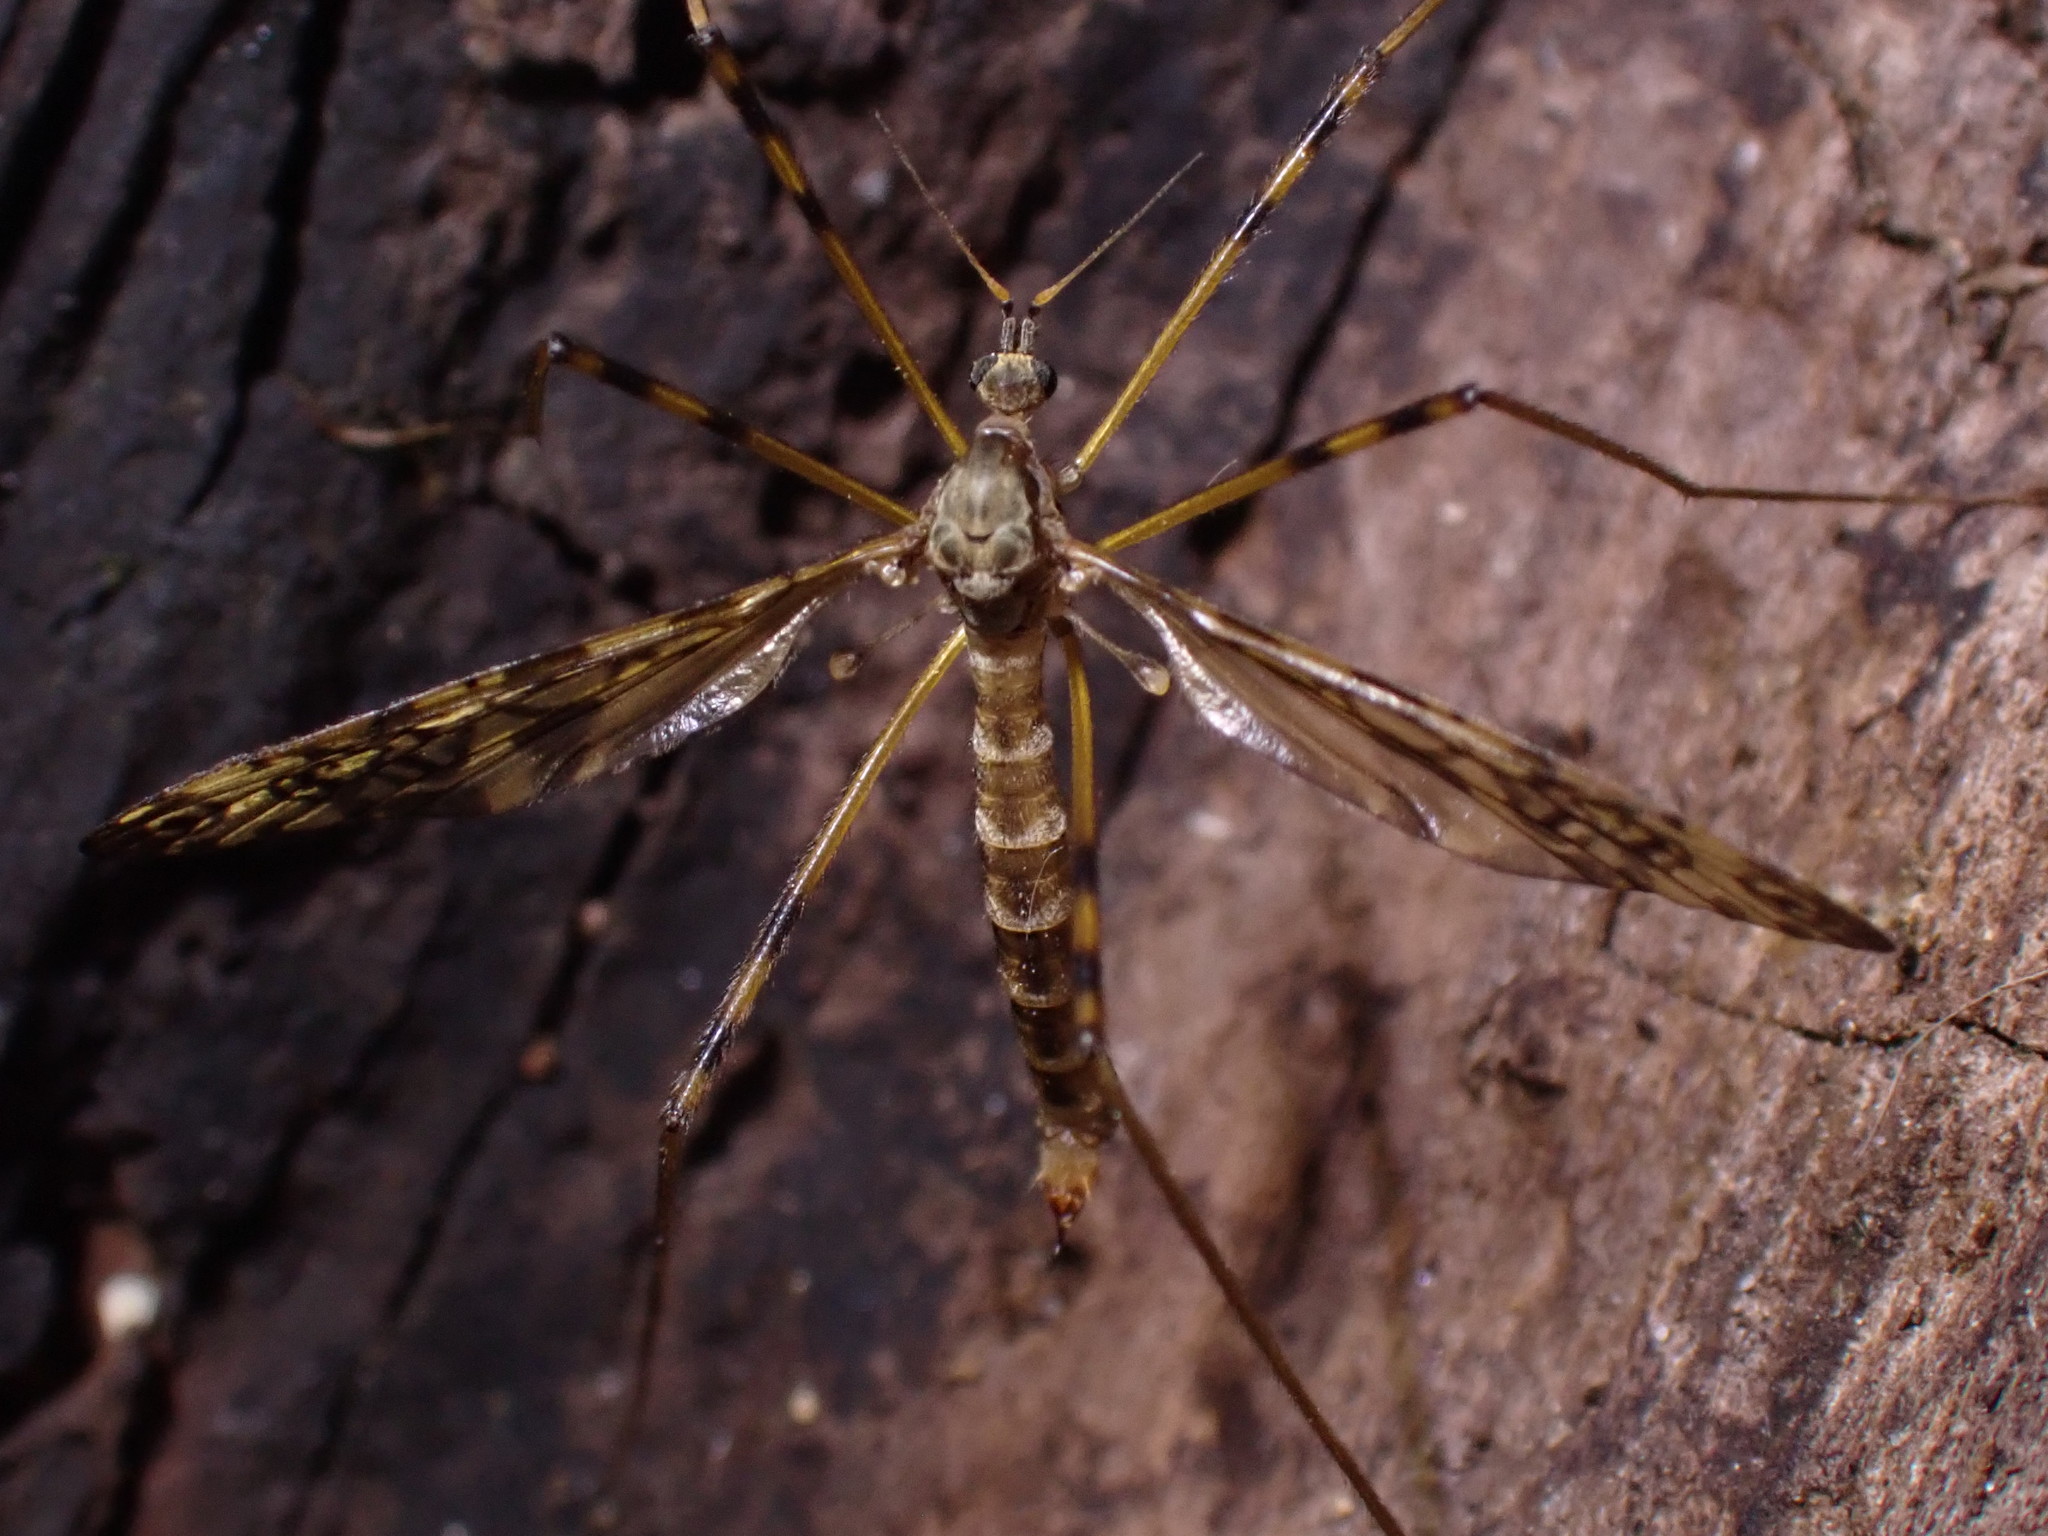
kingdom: Animalia
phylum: Arthropoda
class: Insecta
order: Diptera
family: Limoniidae
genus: Epiphragma
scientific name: Epiphragma ocellare
